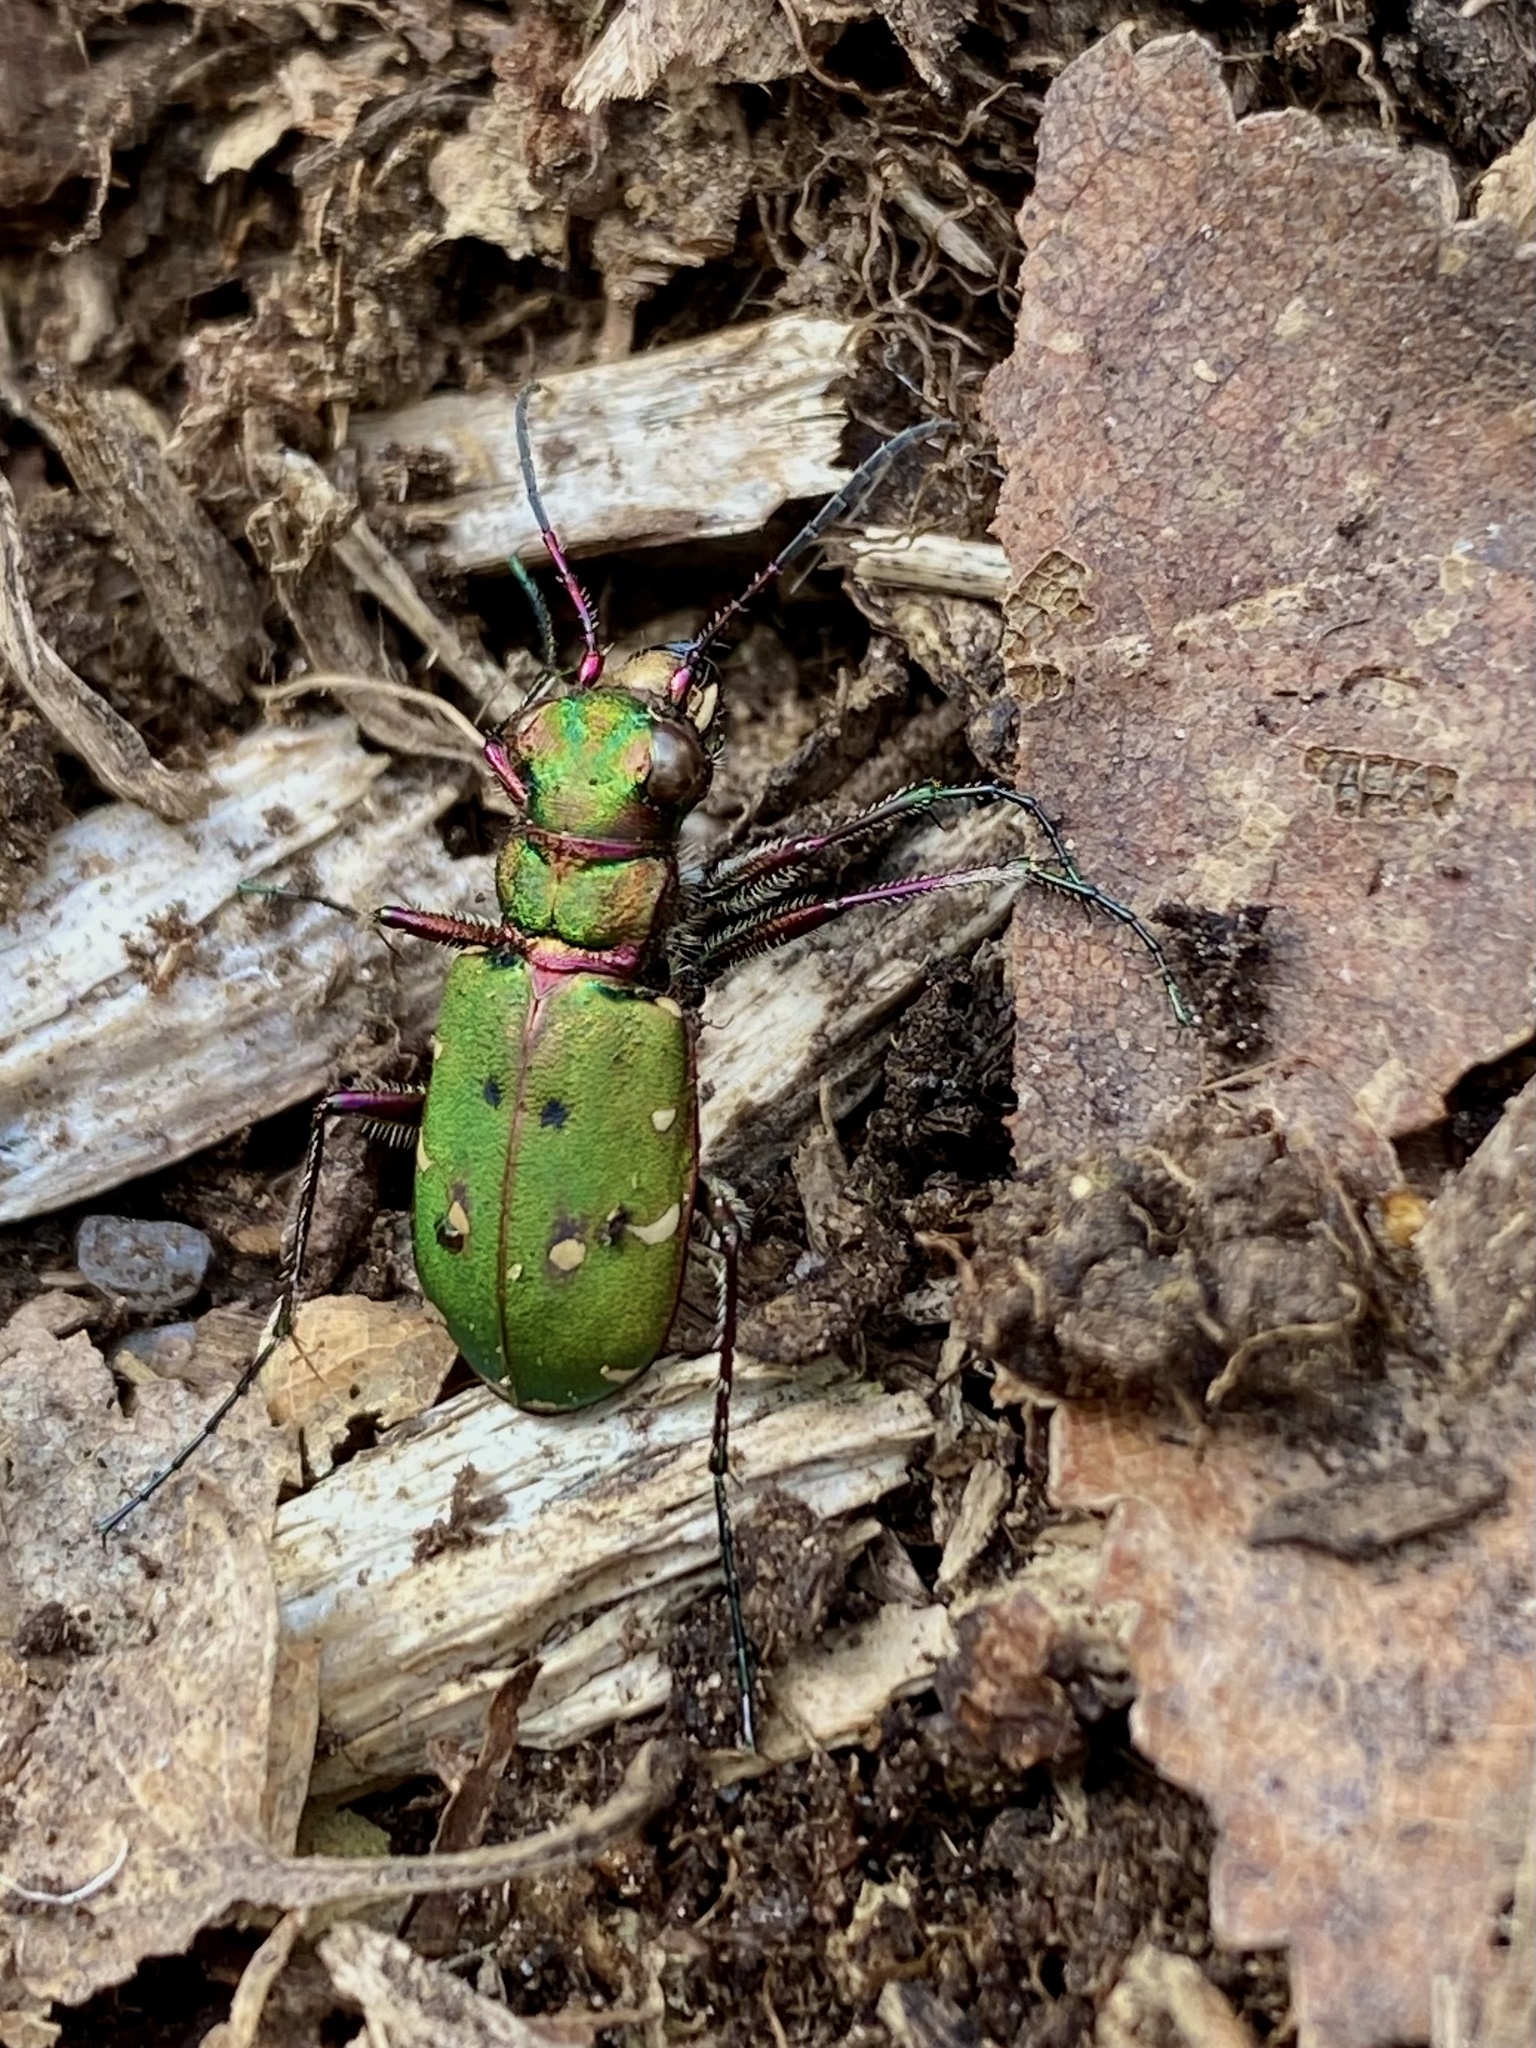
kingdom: Animalia
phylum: Arthropoda
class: Insecta
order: Coleoptera
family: Carabidae
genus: Cicindela
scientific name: Cicindela campestris
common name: Common tiger beetle
